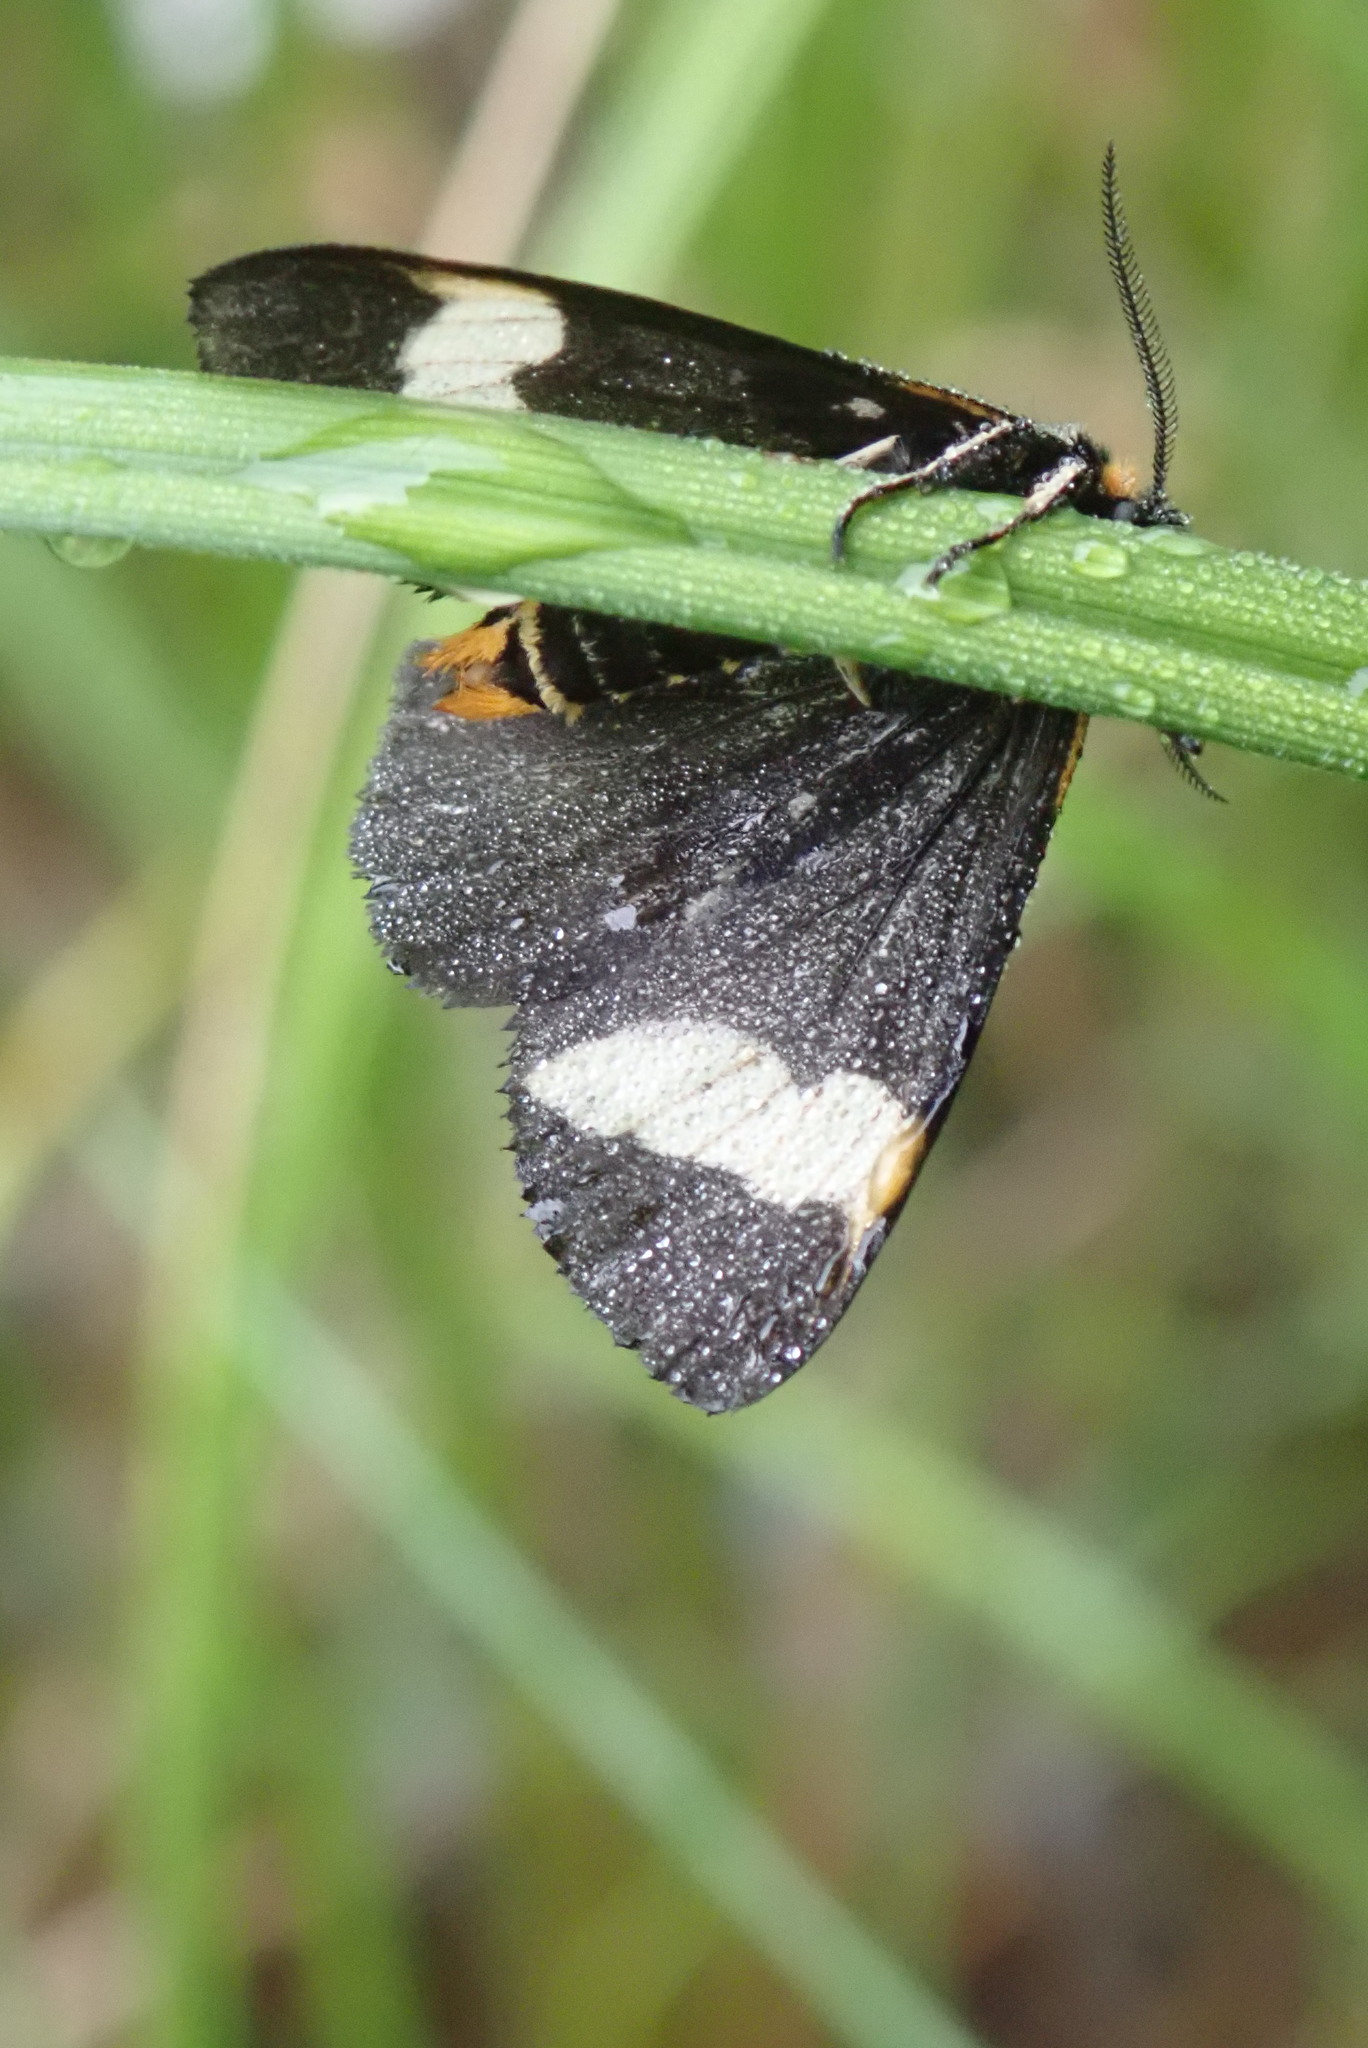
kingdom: Animalia
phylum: Arthropoda
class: Insecta
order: Lepidoptera
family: Erebidae
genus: Parasemia
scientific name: Parasemia plantaginis
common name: Wood tiger
